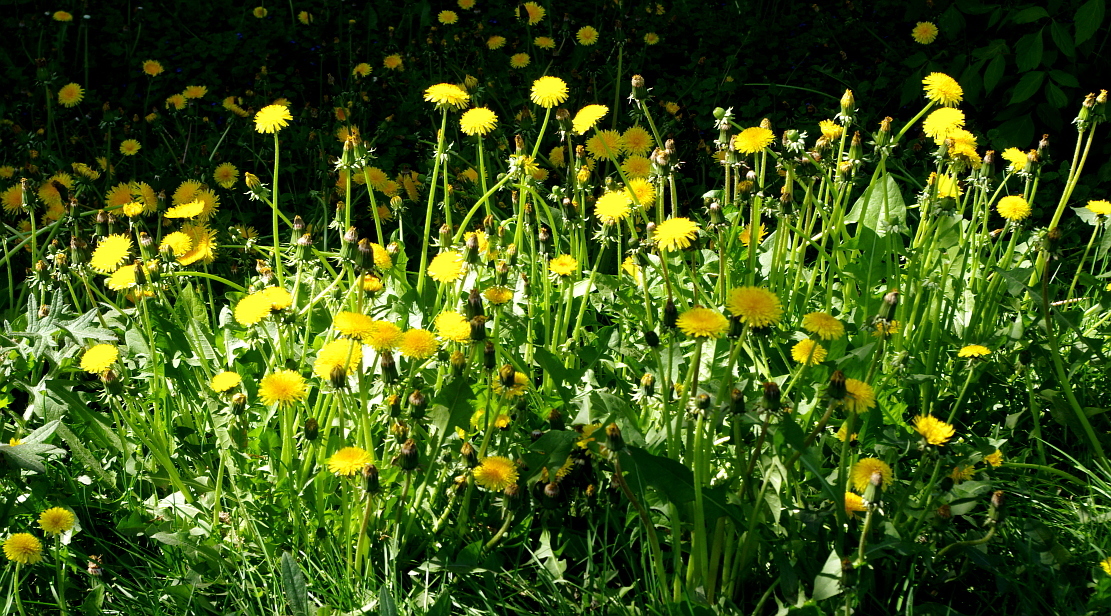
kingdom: Plantae
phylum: Tracheophyta
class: Magnoliopsida
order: Asterales
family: Asteraceae
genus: Taraxacum
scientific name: Taraxacum officinale
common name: Common dandelion
